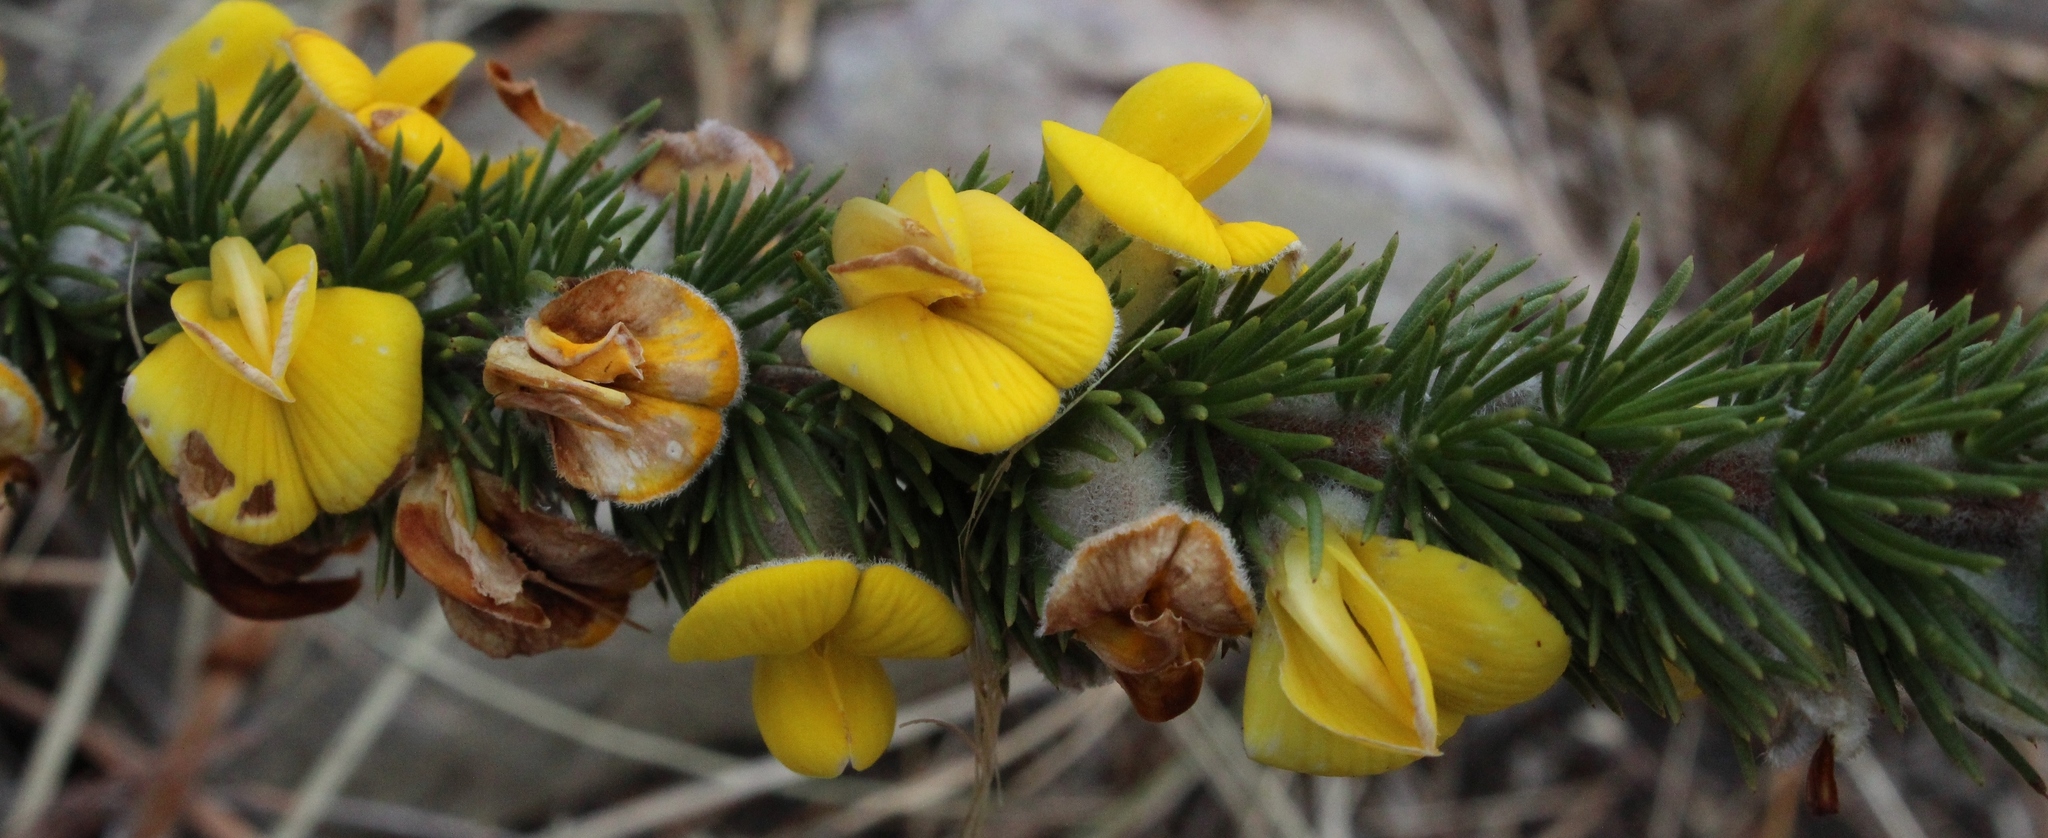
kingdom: Plantae
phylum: Tracheophyta
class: Magnoliopsida
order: Fabales
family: Fabaceae
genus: Aspalathus
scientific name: Aspalathus verbasciformis
